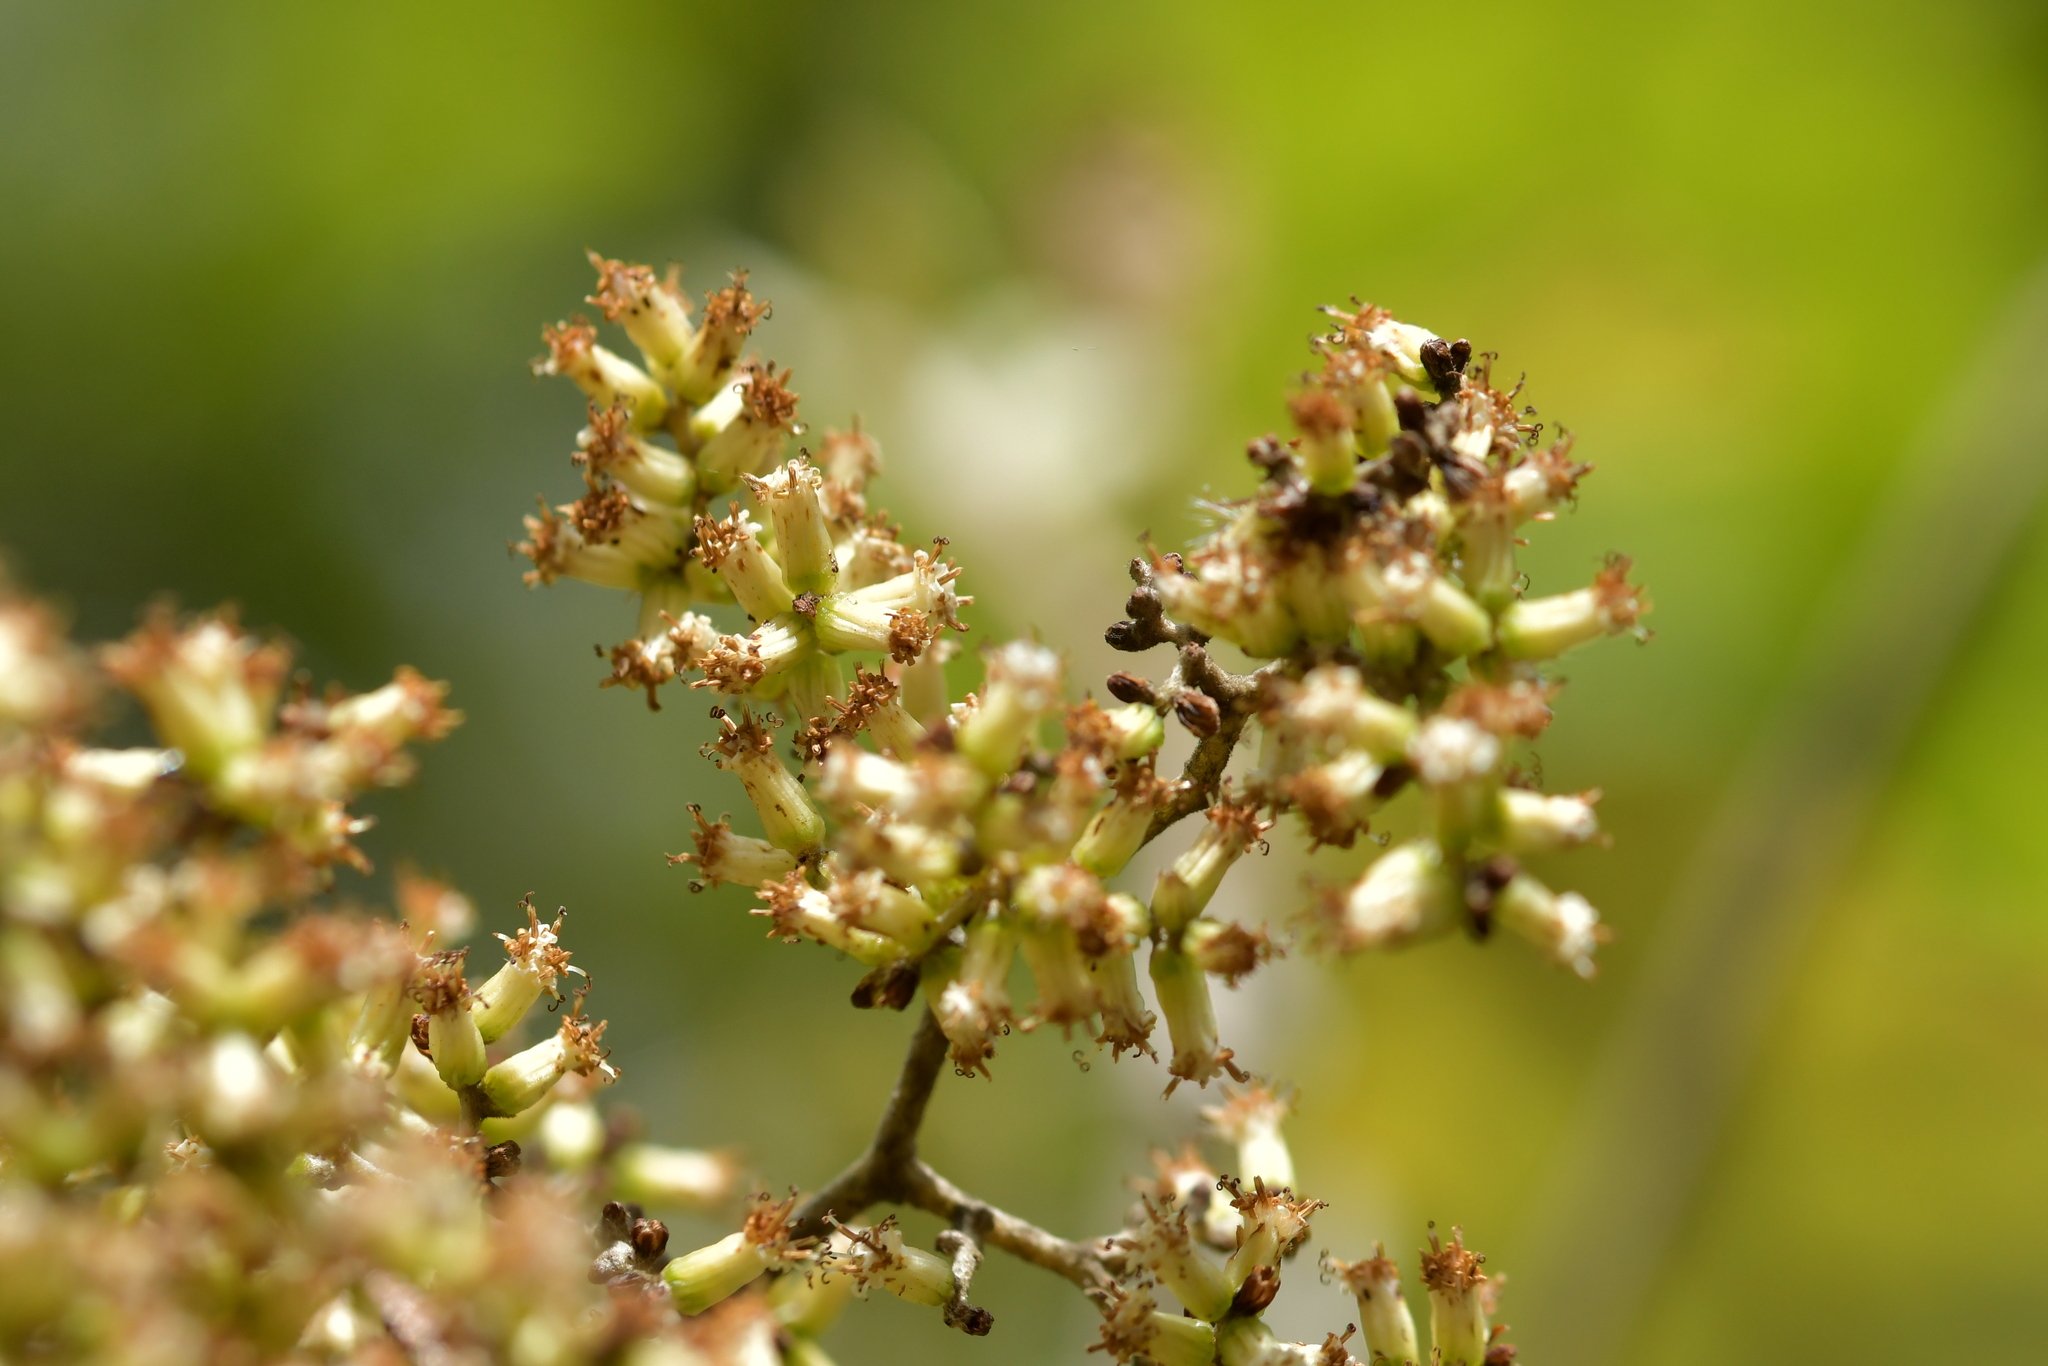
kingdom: Plantae
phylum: Tracheophyta
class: Magnoliopsida
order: Asterales
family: Asteraceae
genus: Brachyglottis
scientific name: Brachyglottis repanda
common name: Hedge ragwort
